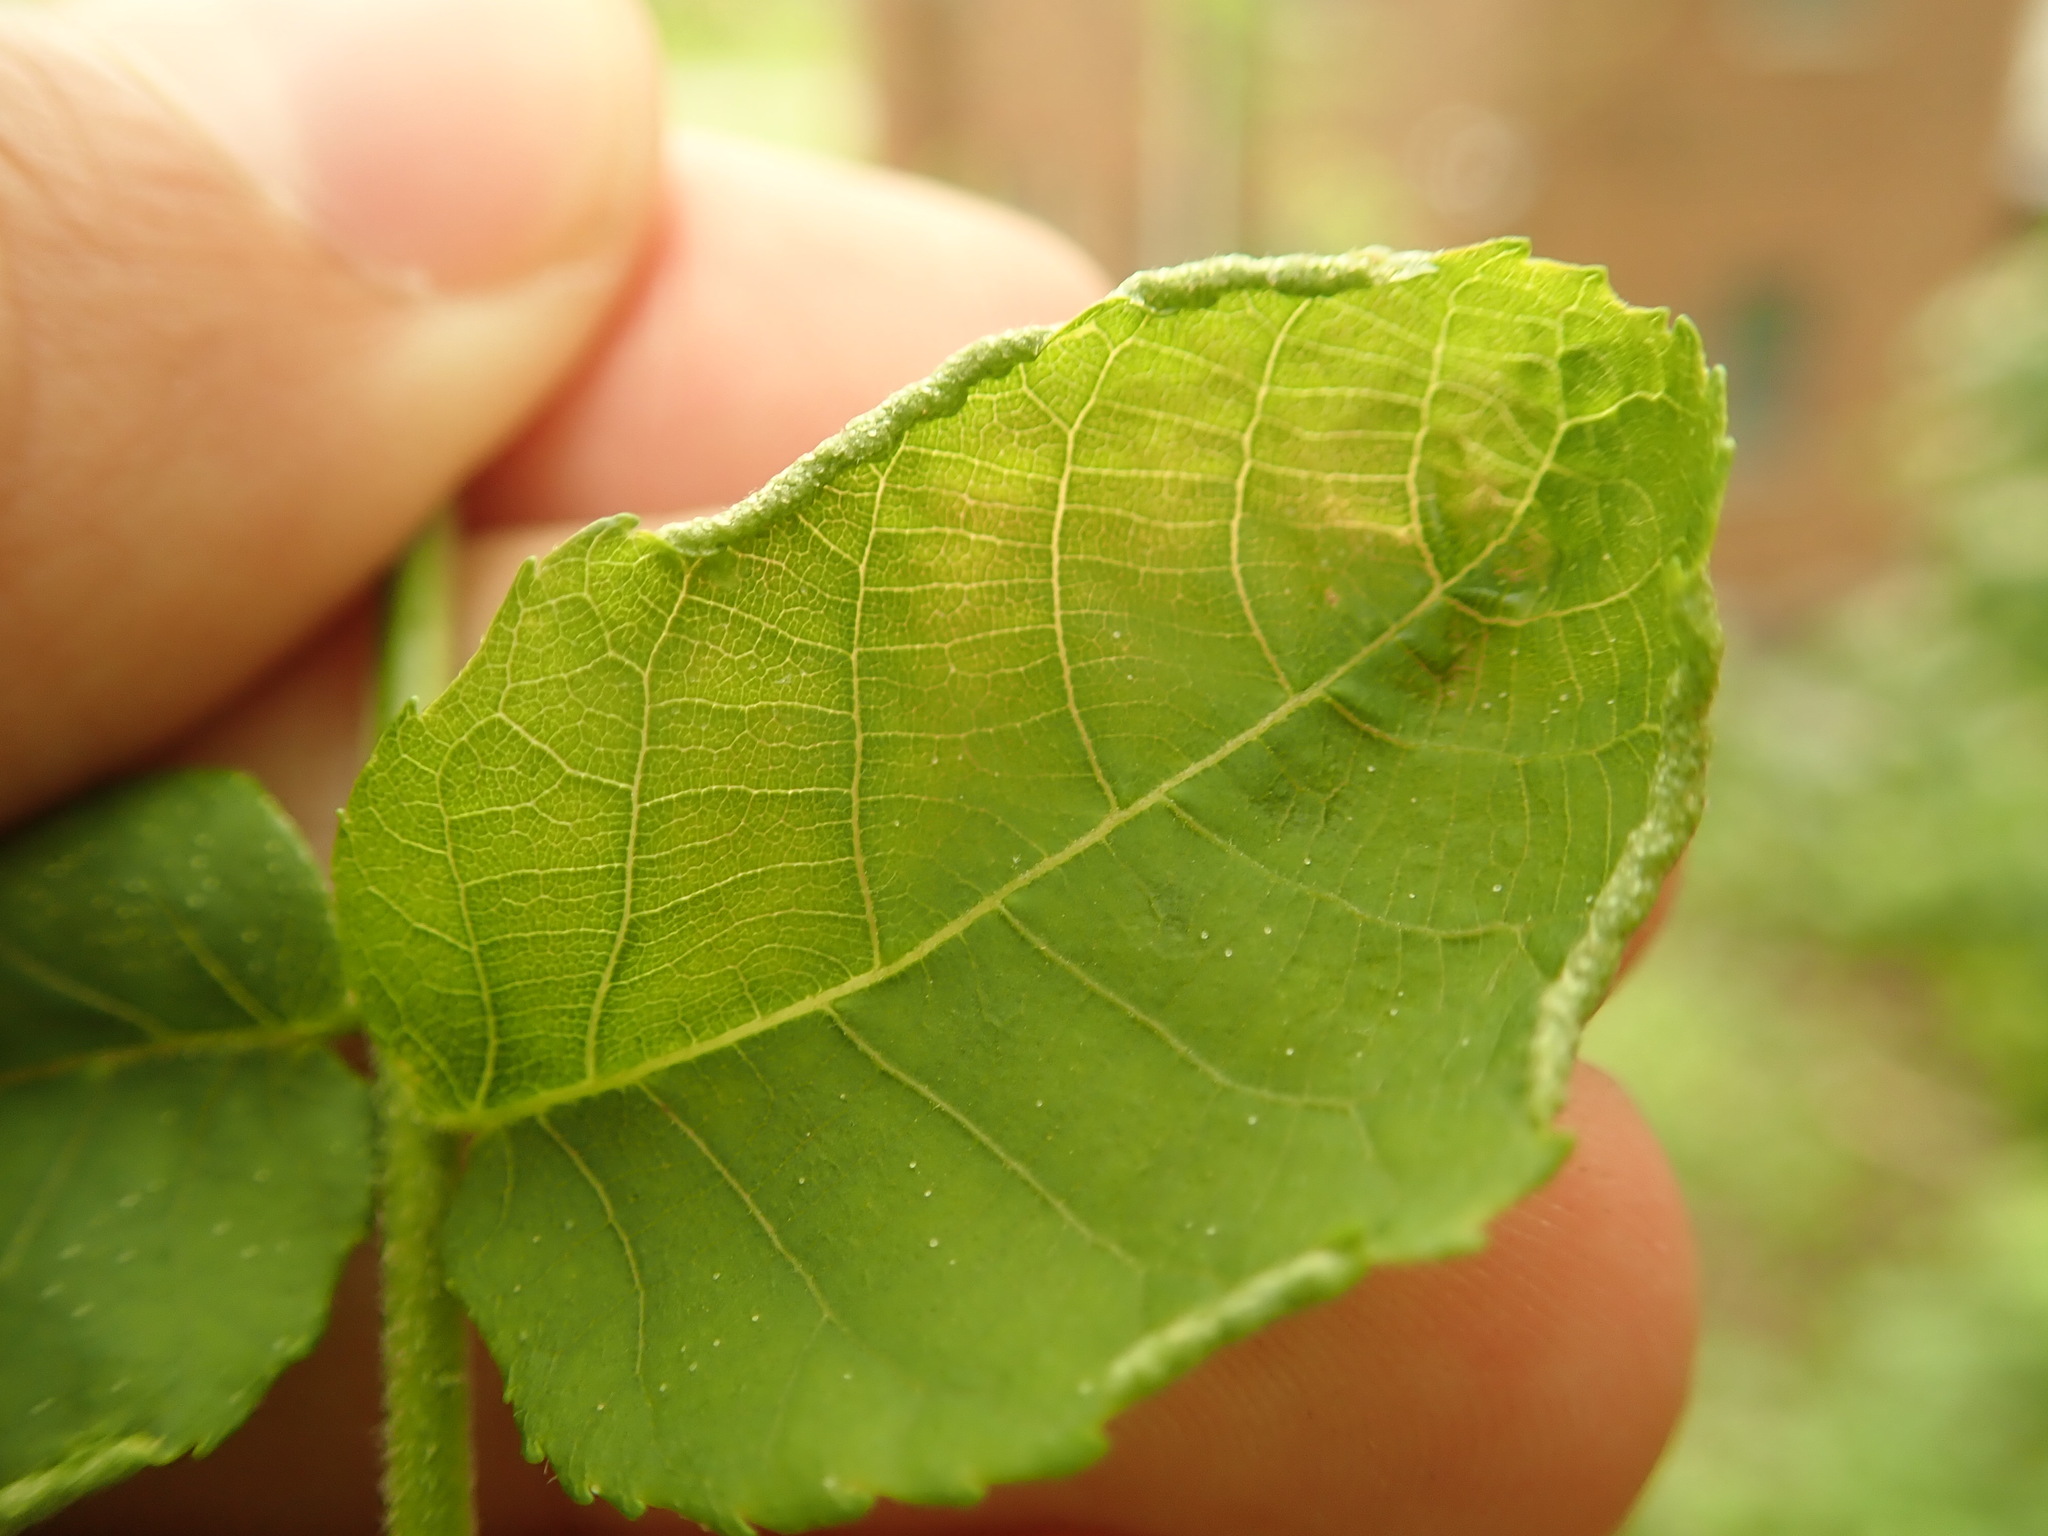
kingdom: Animalia
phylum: Arthropoda
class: Arachnida
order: Trombidiformes
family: Eriophyidae
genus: Aceria
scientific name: Aceria carlinae
